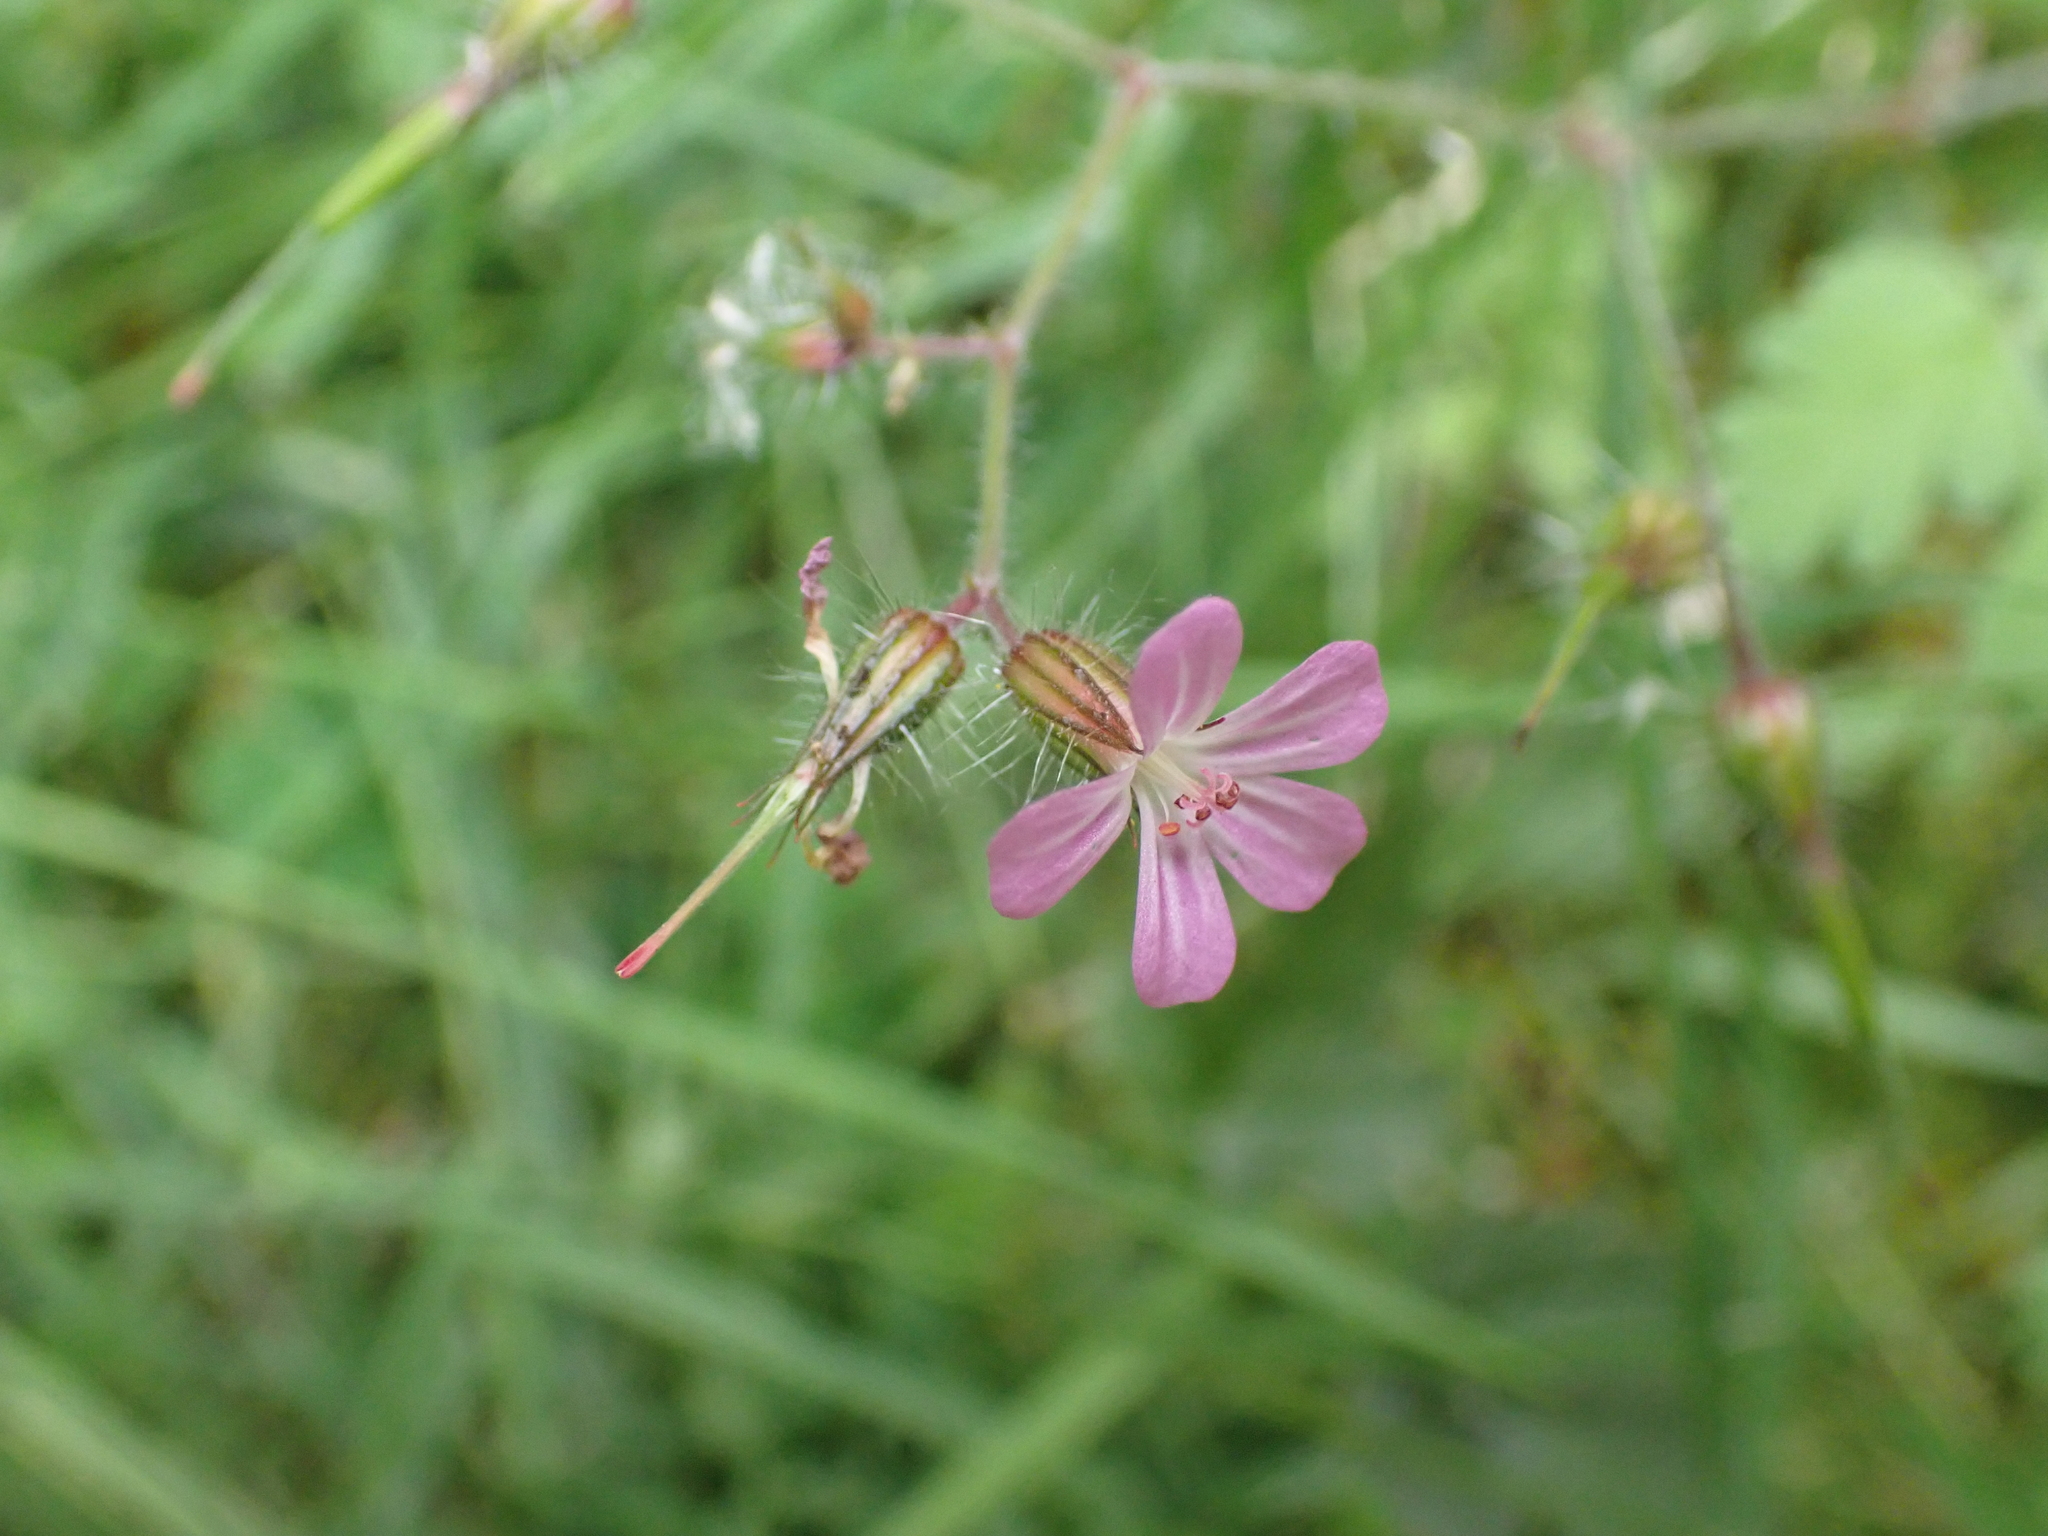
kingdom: Plantae
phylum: Tracheophyta
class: Magnoliopsida
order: Geraniales
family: Geraniaceae
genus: Geranium
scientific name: Geranium robertianum
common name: Herb-robert
